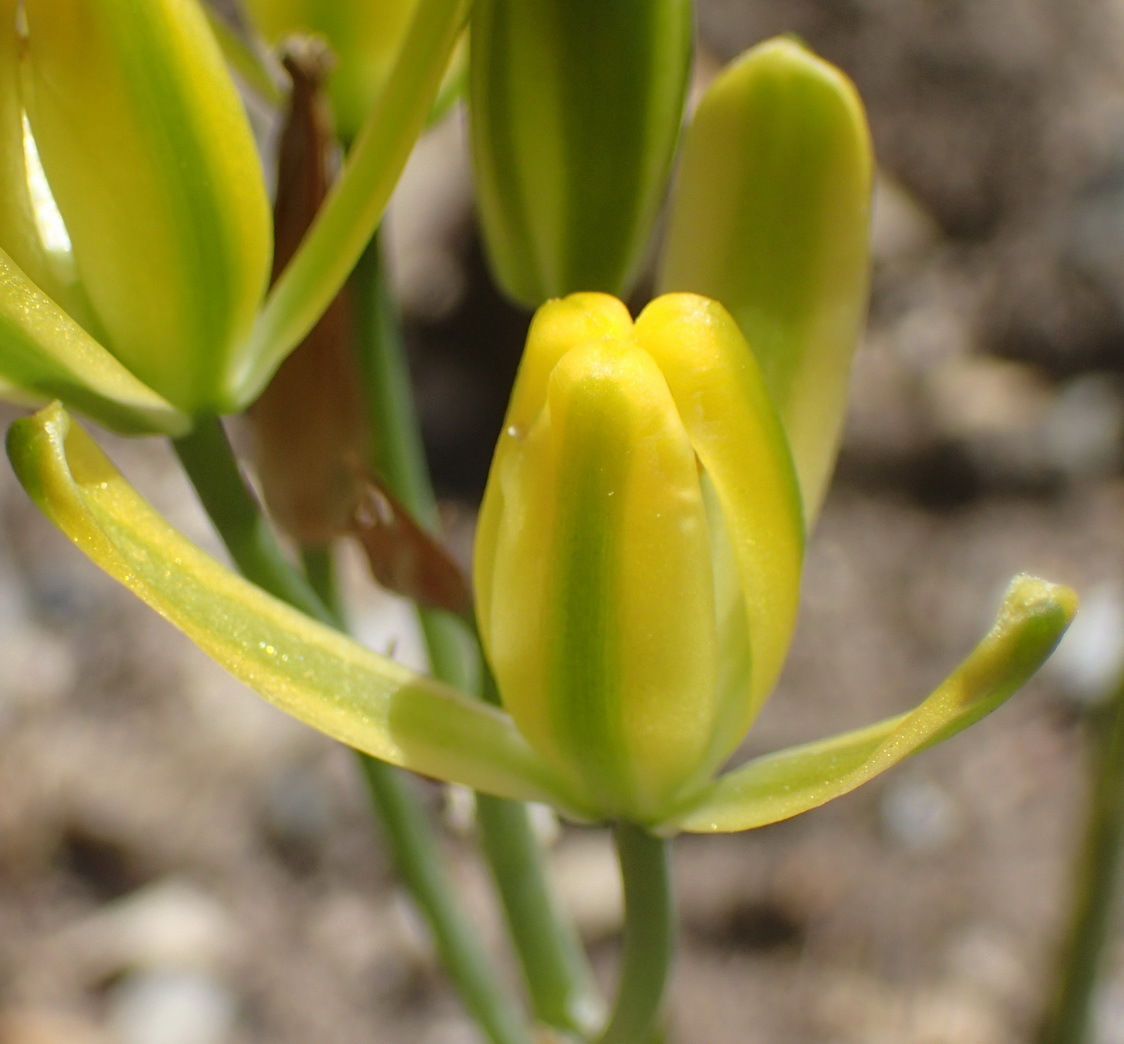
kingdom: Plantae
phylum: Tracheophyta
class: Liliopsida
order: Asparagales
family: Asparagaceae
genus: Albuca
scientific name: Albuca setosa
